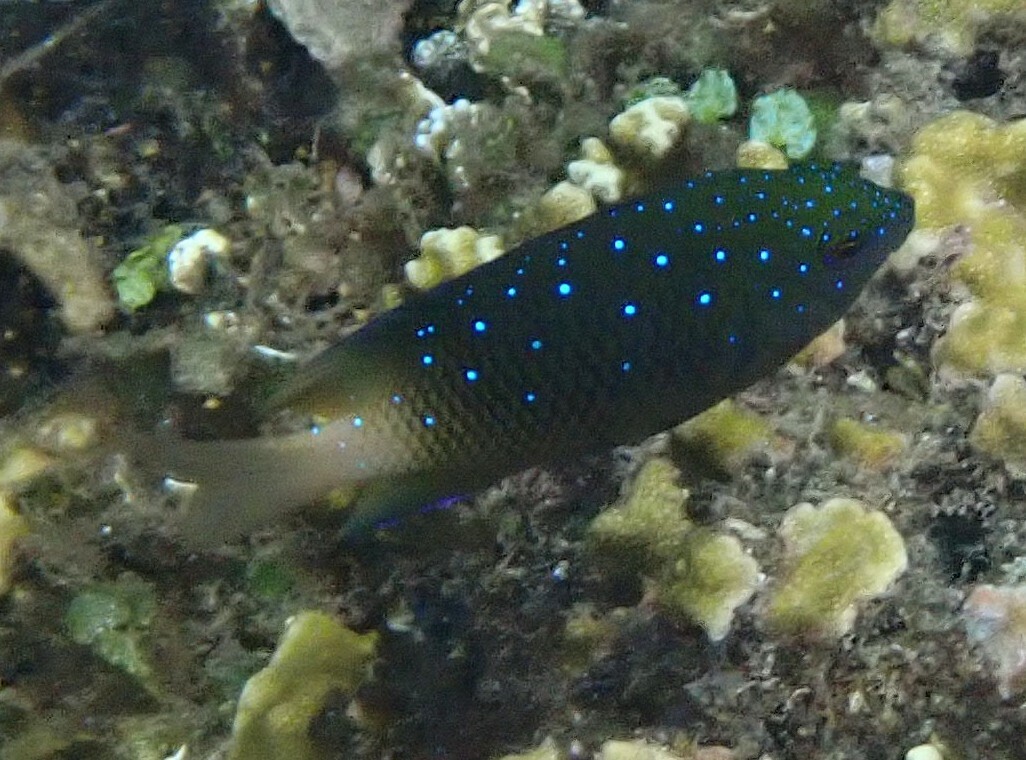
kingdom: Animalia
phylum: Chordata
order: Perciformes
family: Pomacentridae
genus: Plectroglyphidodon
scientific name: Plectroglyphidodon lacrymatus
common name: Jewel damsel
